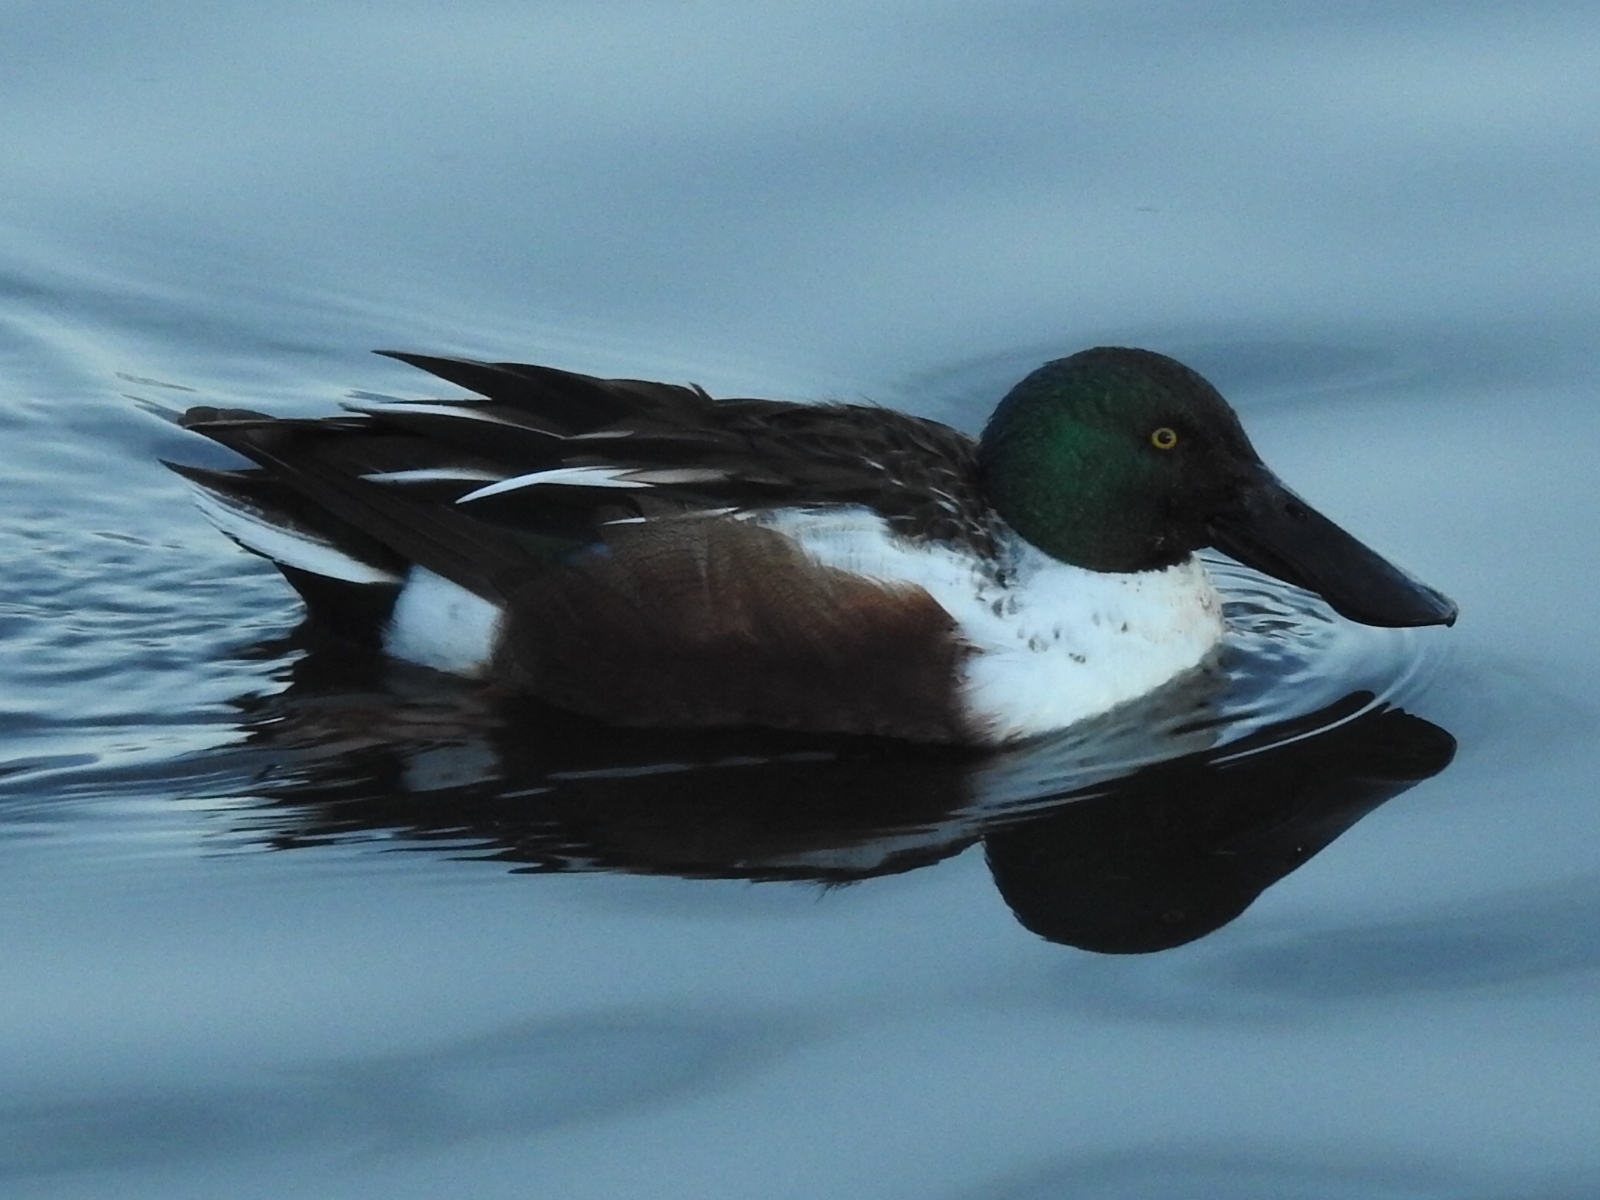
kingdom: Animalia
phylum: Chordata
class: Aves
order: Anseriformes
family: Anatidae
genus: Spatula
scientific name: Spatula clypeata
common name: Northern shoveler
